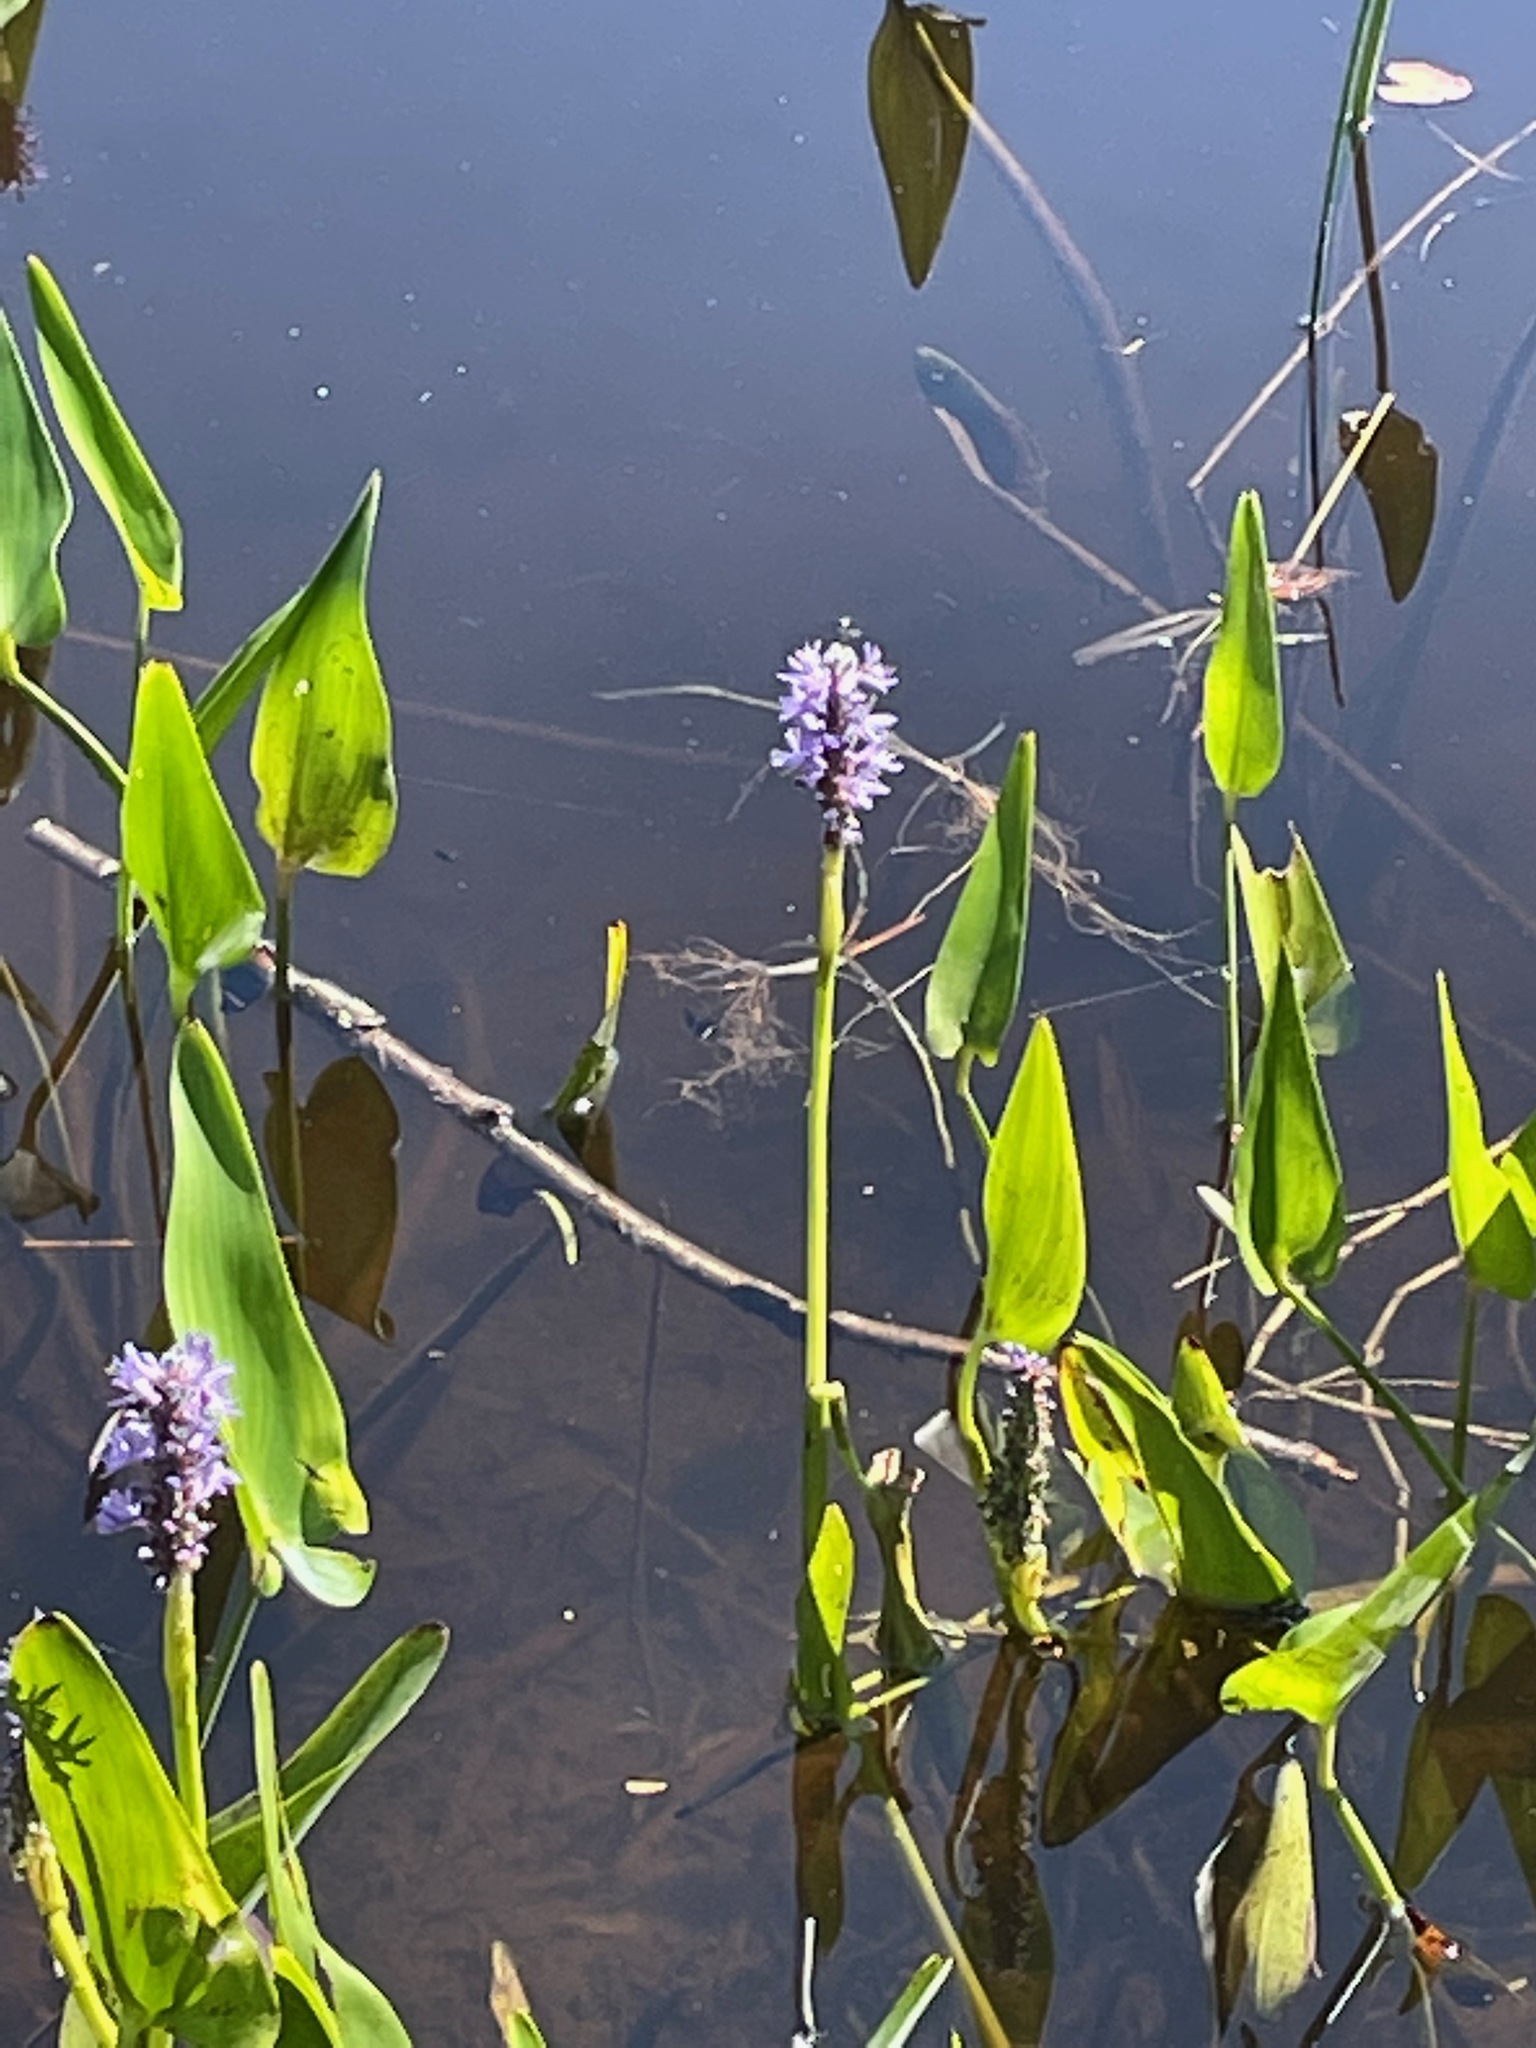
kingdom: Plantae
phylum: Tracheophyta
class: Liliopsida
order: Commelinales
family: Pontederiaceae
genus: Pontederia
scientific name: Pontederia cordata
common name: Pickerelweed
